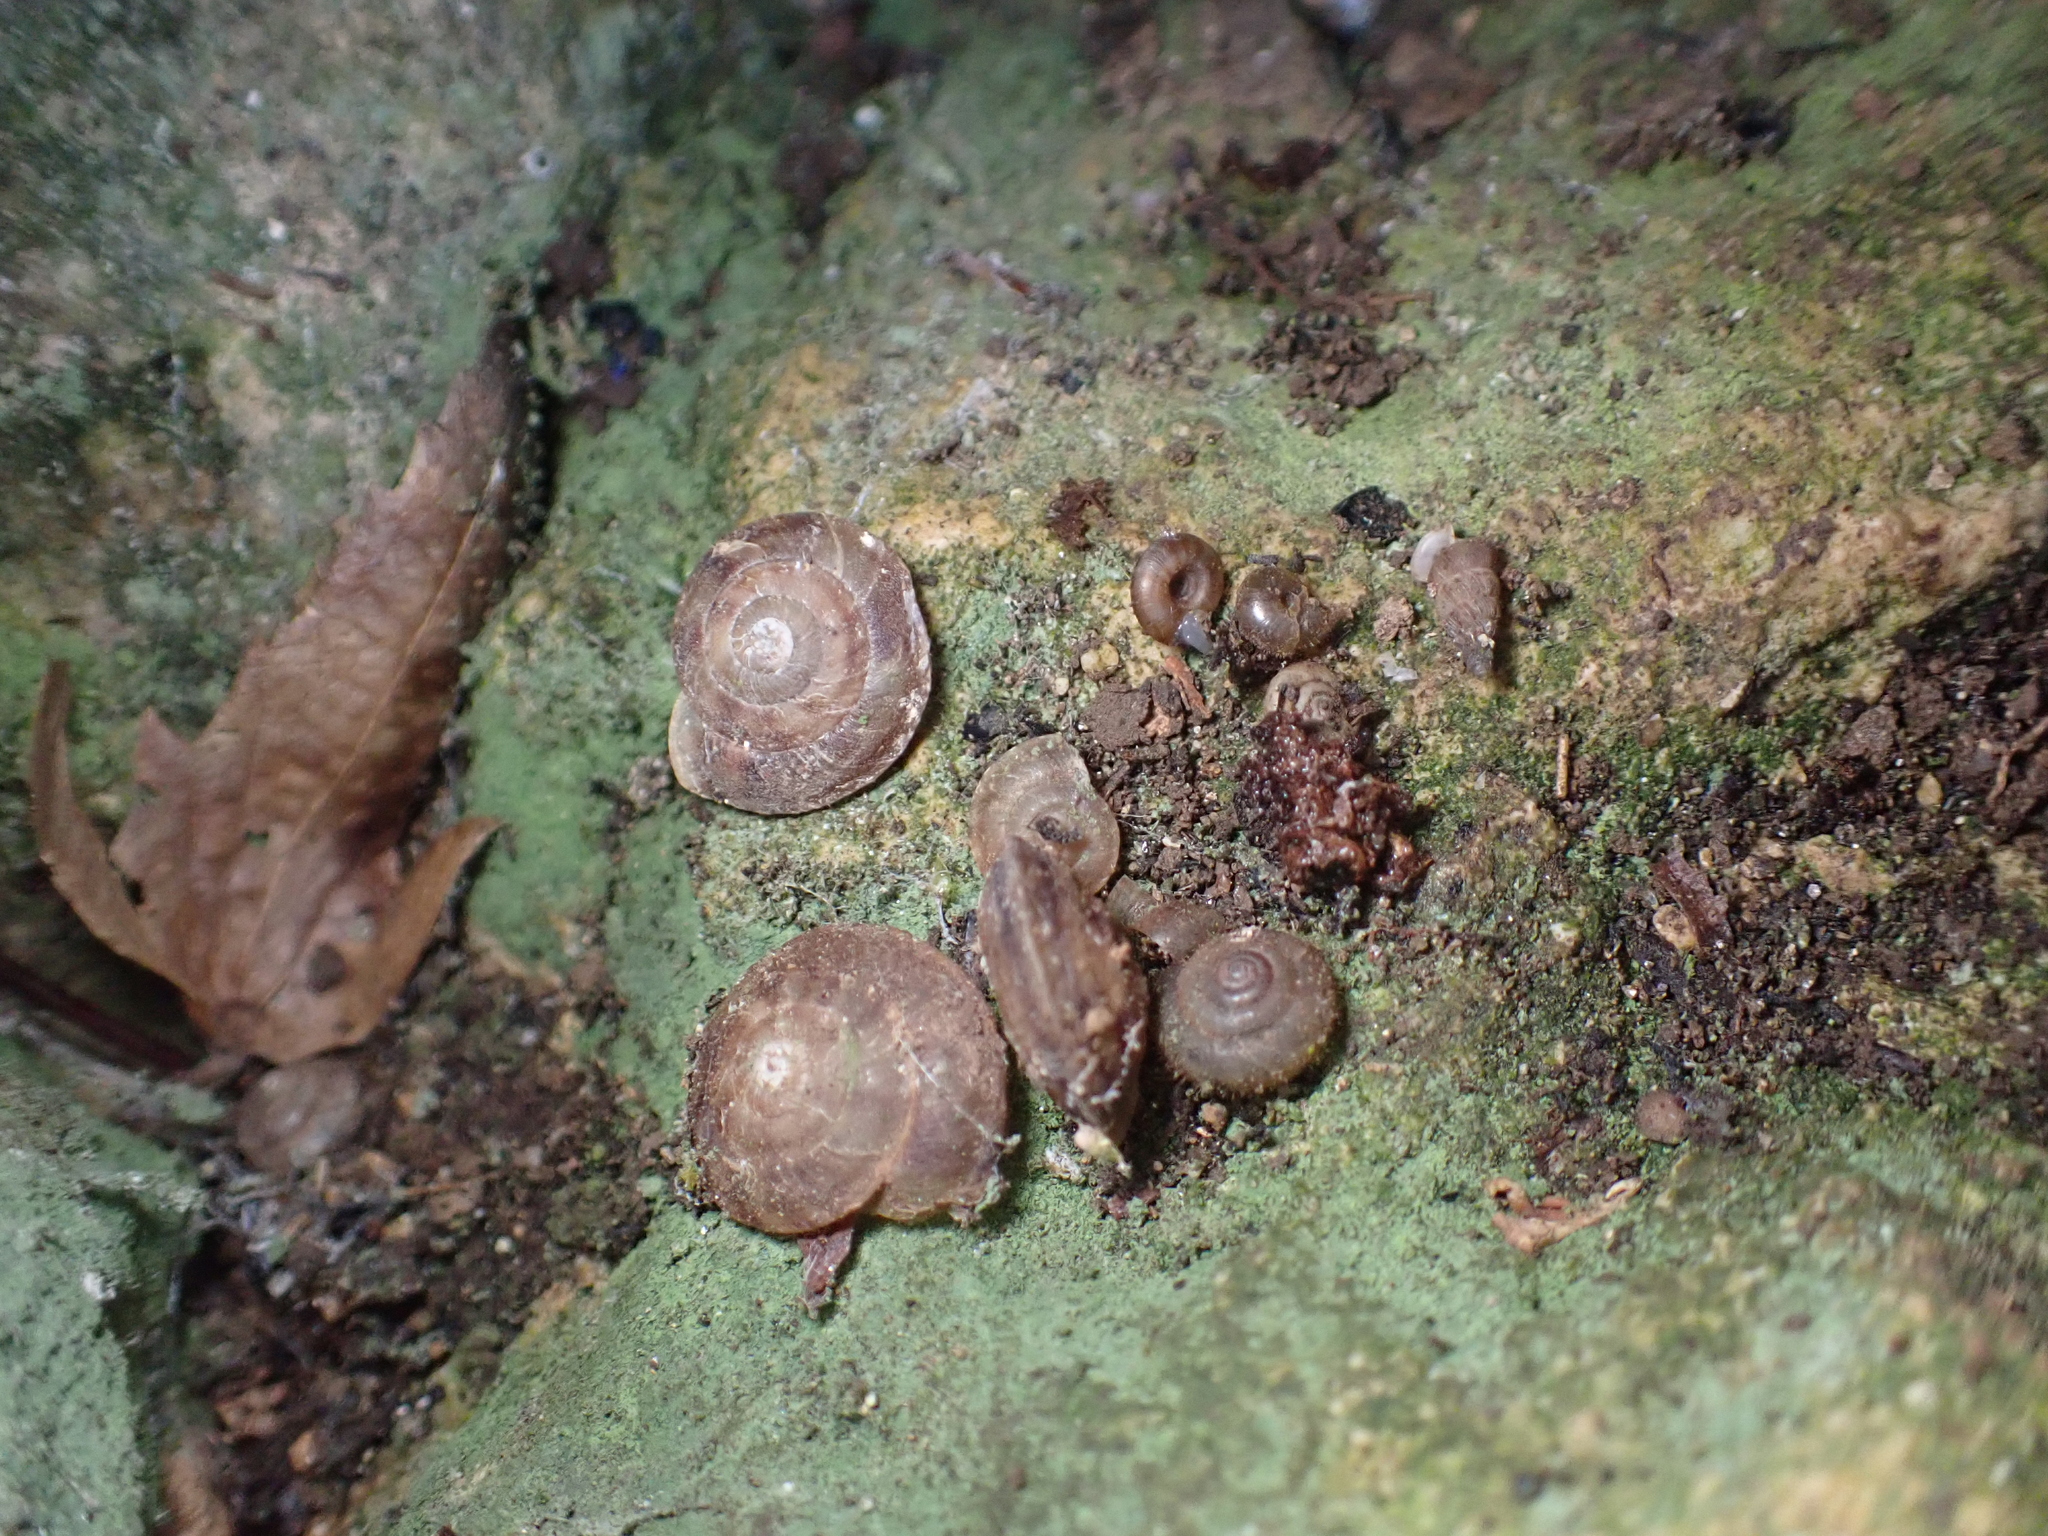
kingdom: Animalia
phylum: Mollusca
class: Gastropoda
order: Stylommatophora
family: Discidae
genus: Discus
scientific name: Discus rotundatus
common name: Rounded snail
